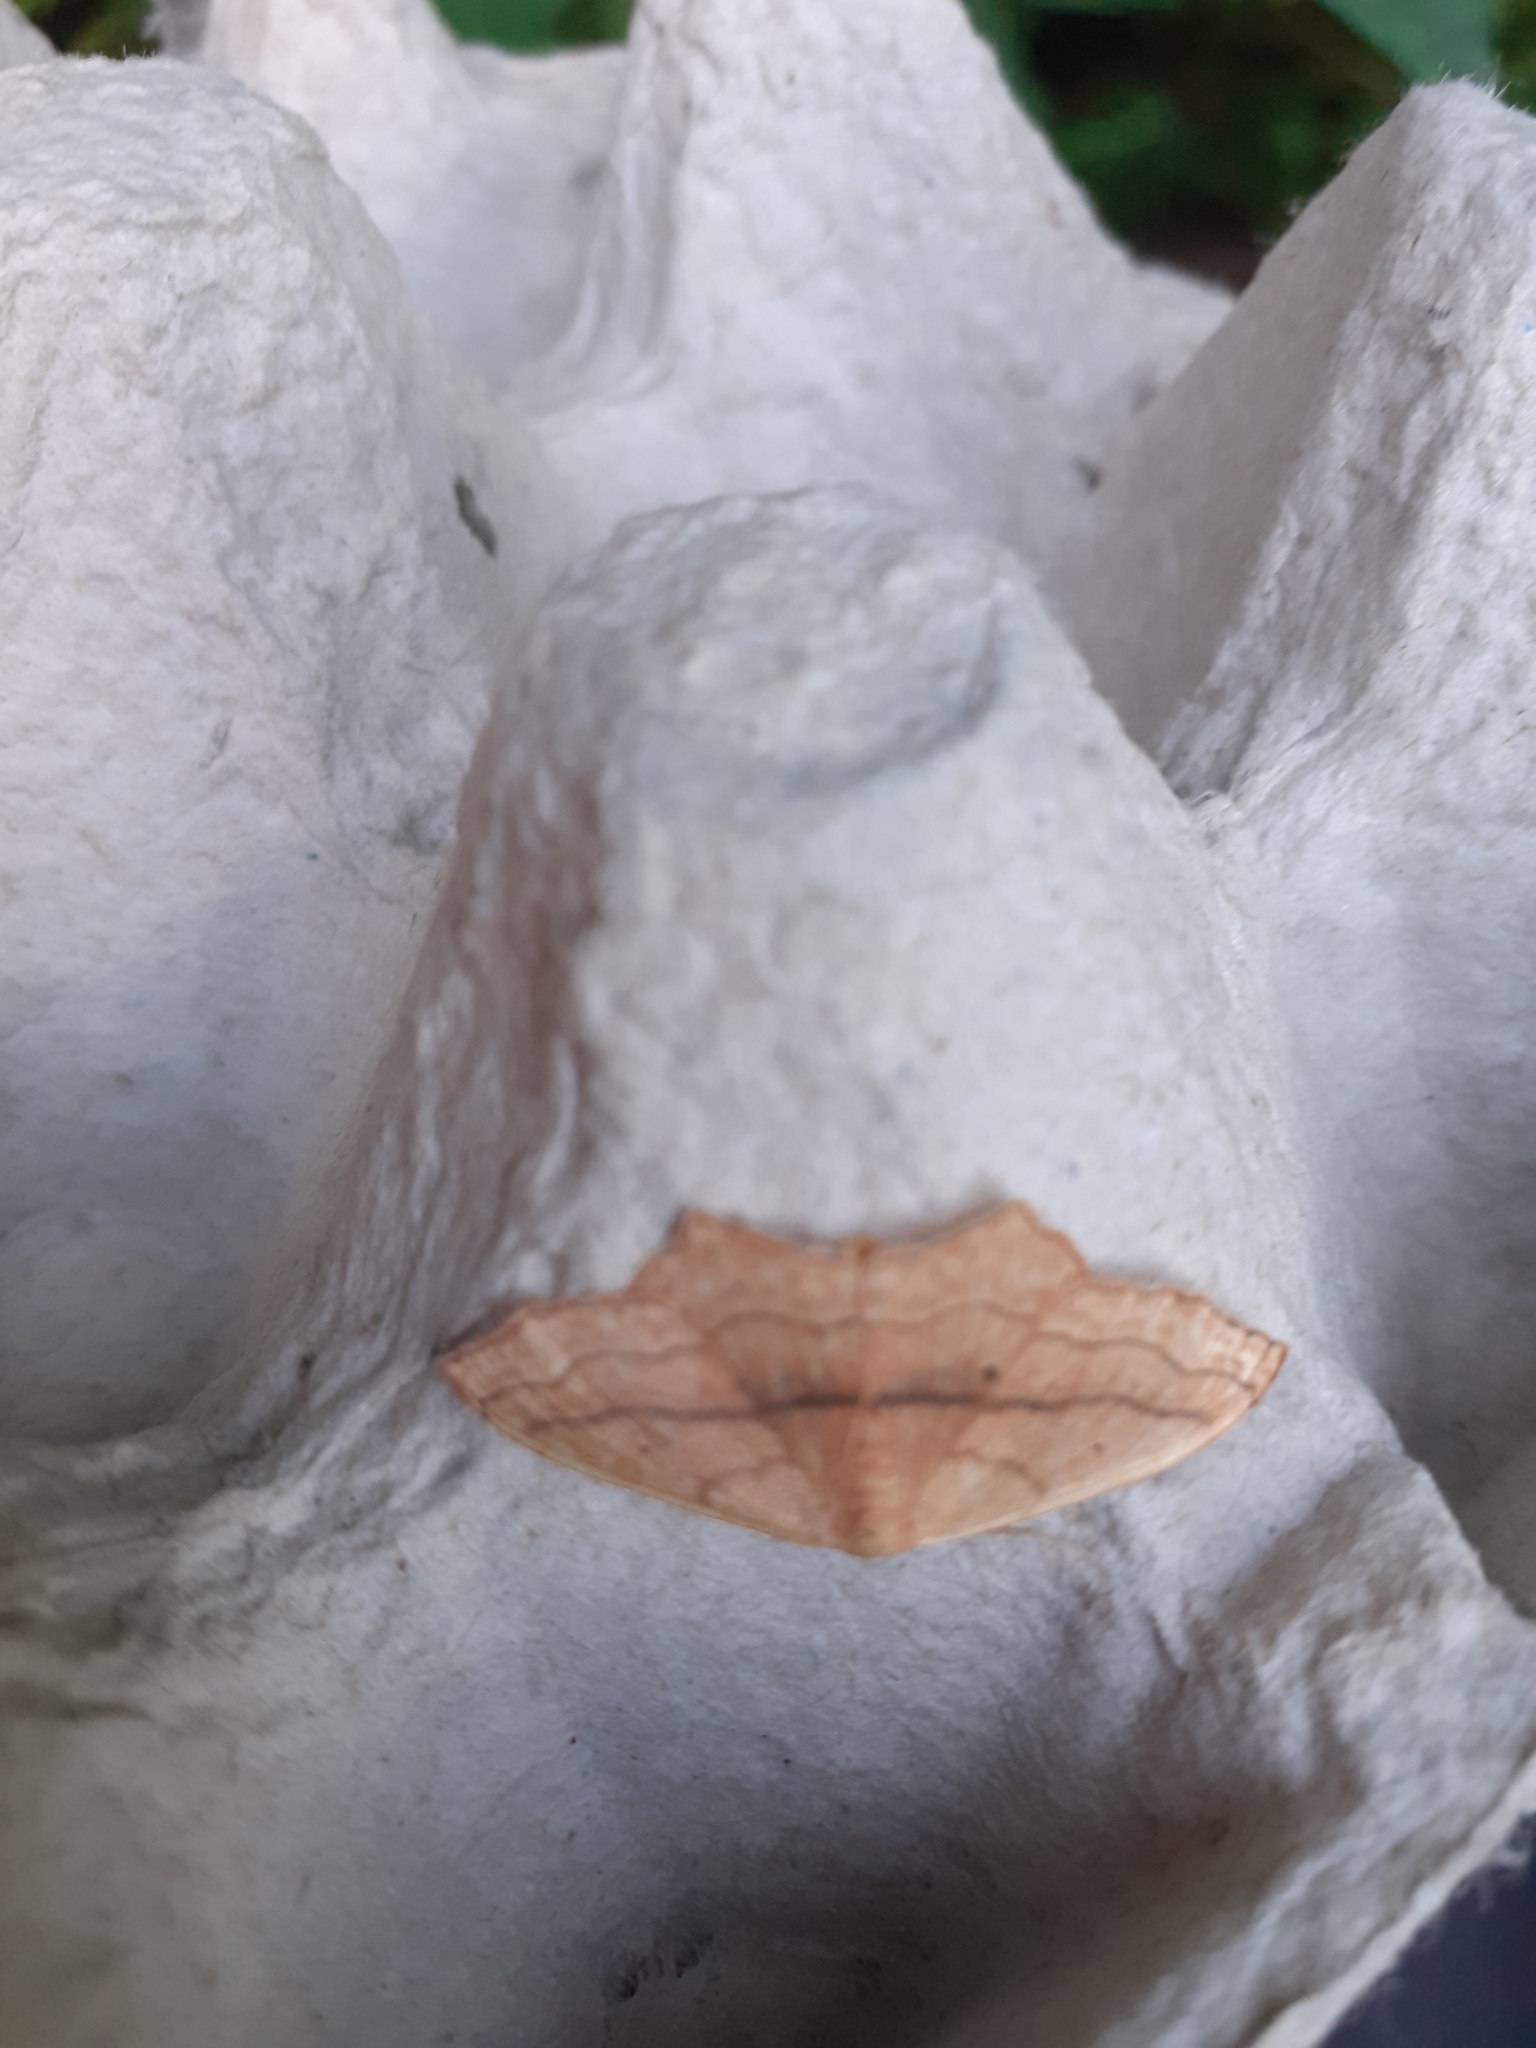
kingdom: Animalia
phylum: Arthropoda
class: Insecta
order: Lepidoptera
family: Geometridae
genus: Scopula
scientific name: Scopula imitaria
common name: Small blood-vein
